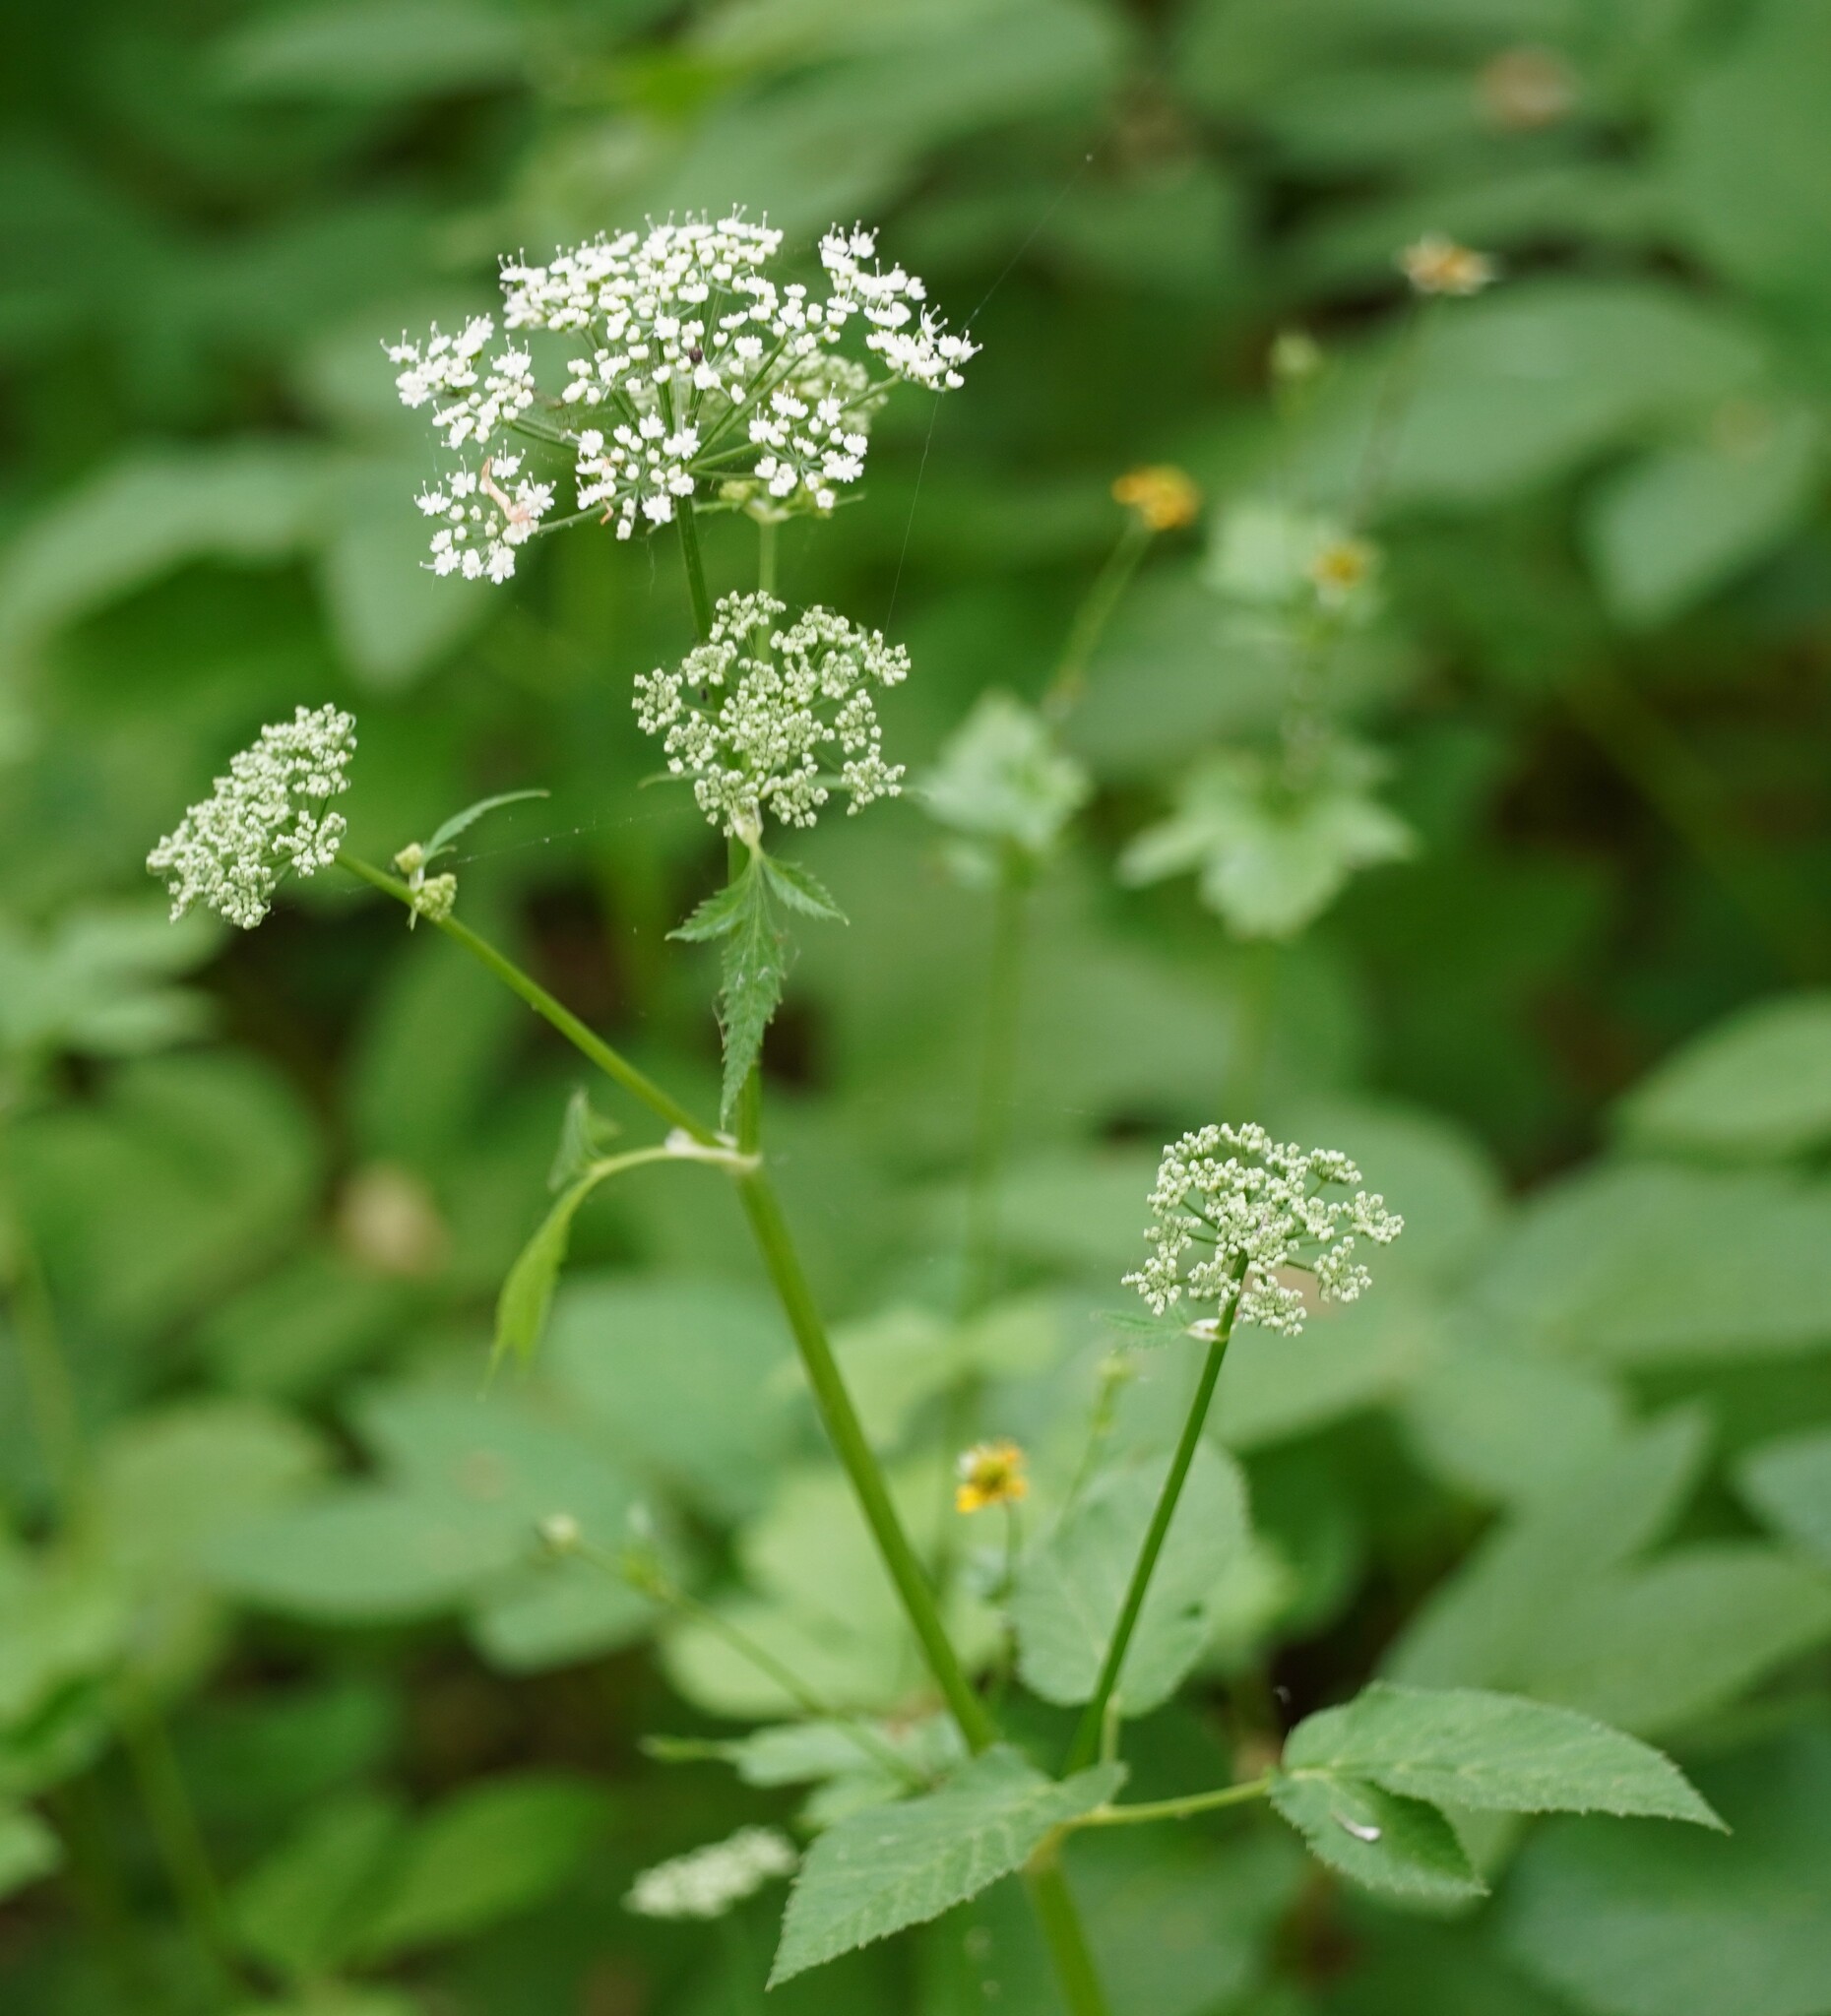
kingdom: Plantae
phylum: Tracheophyta
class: Magnoliopsida
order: Apiales
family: Apiaceae
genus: Aegopodium
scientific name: Aegopodium podagraria
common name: Ground-elder
